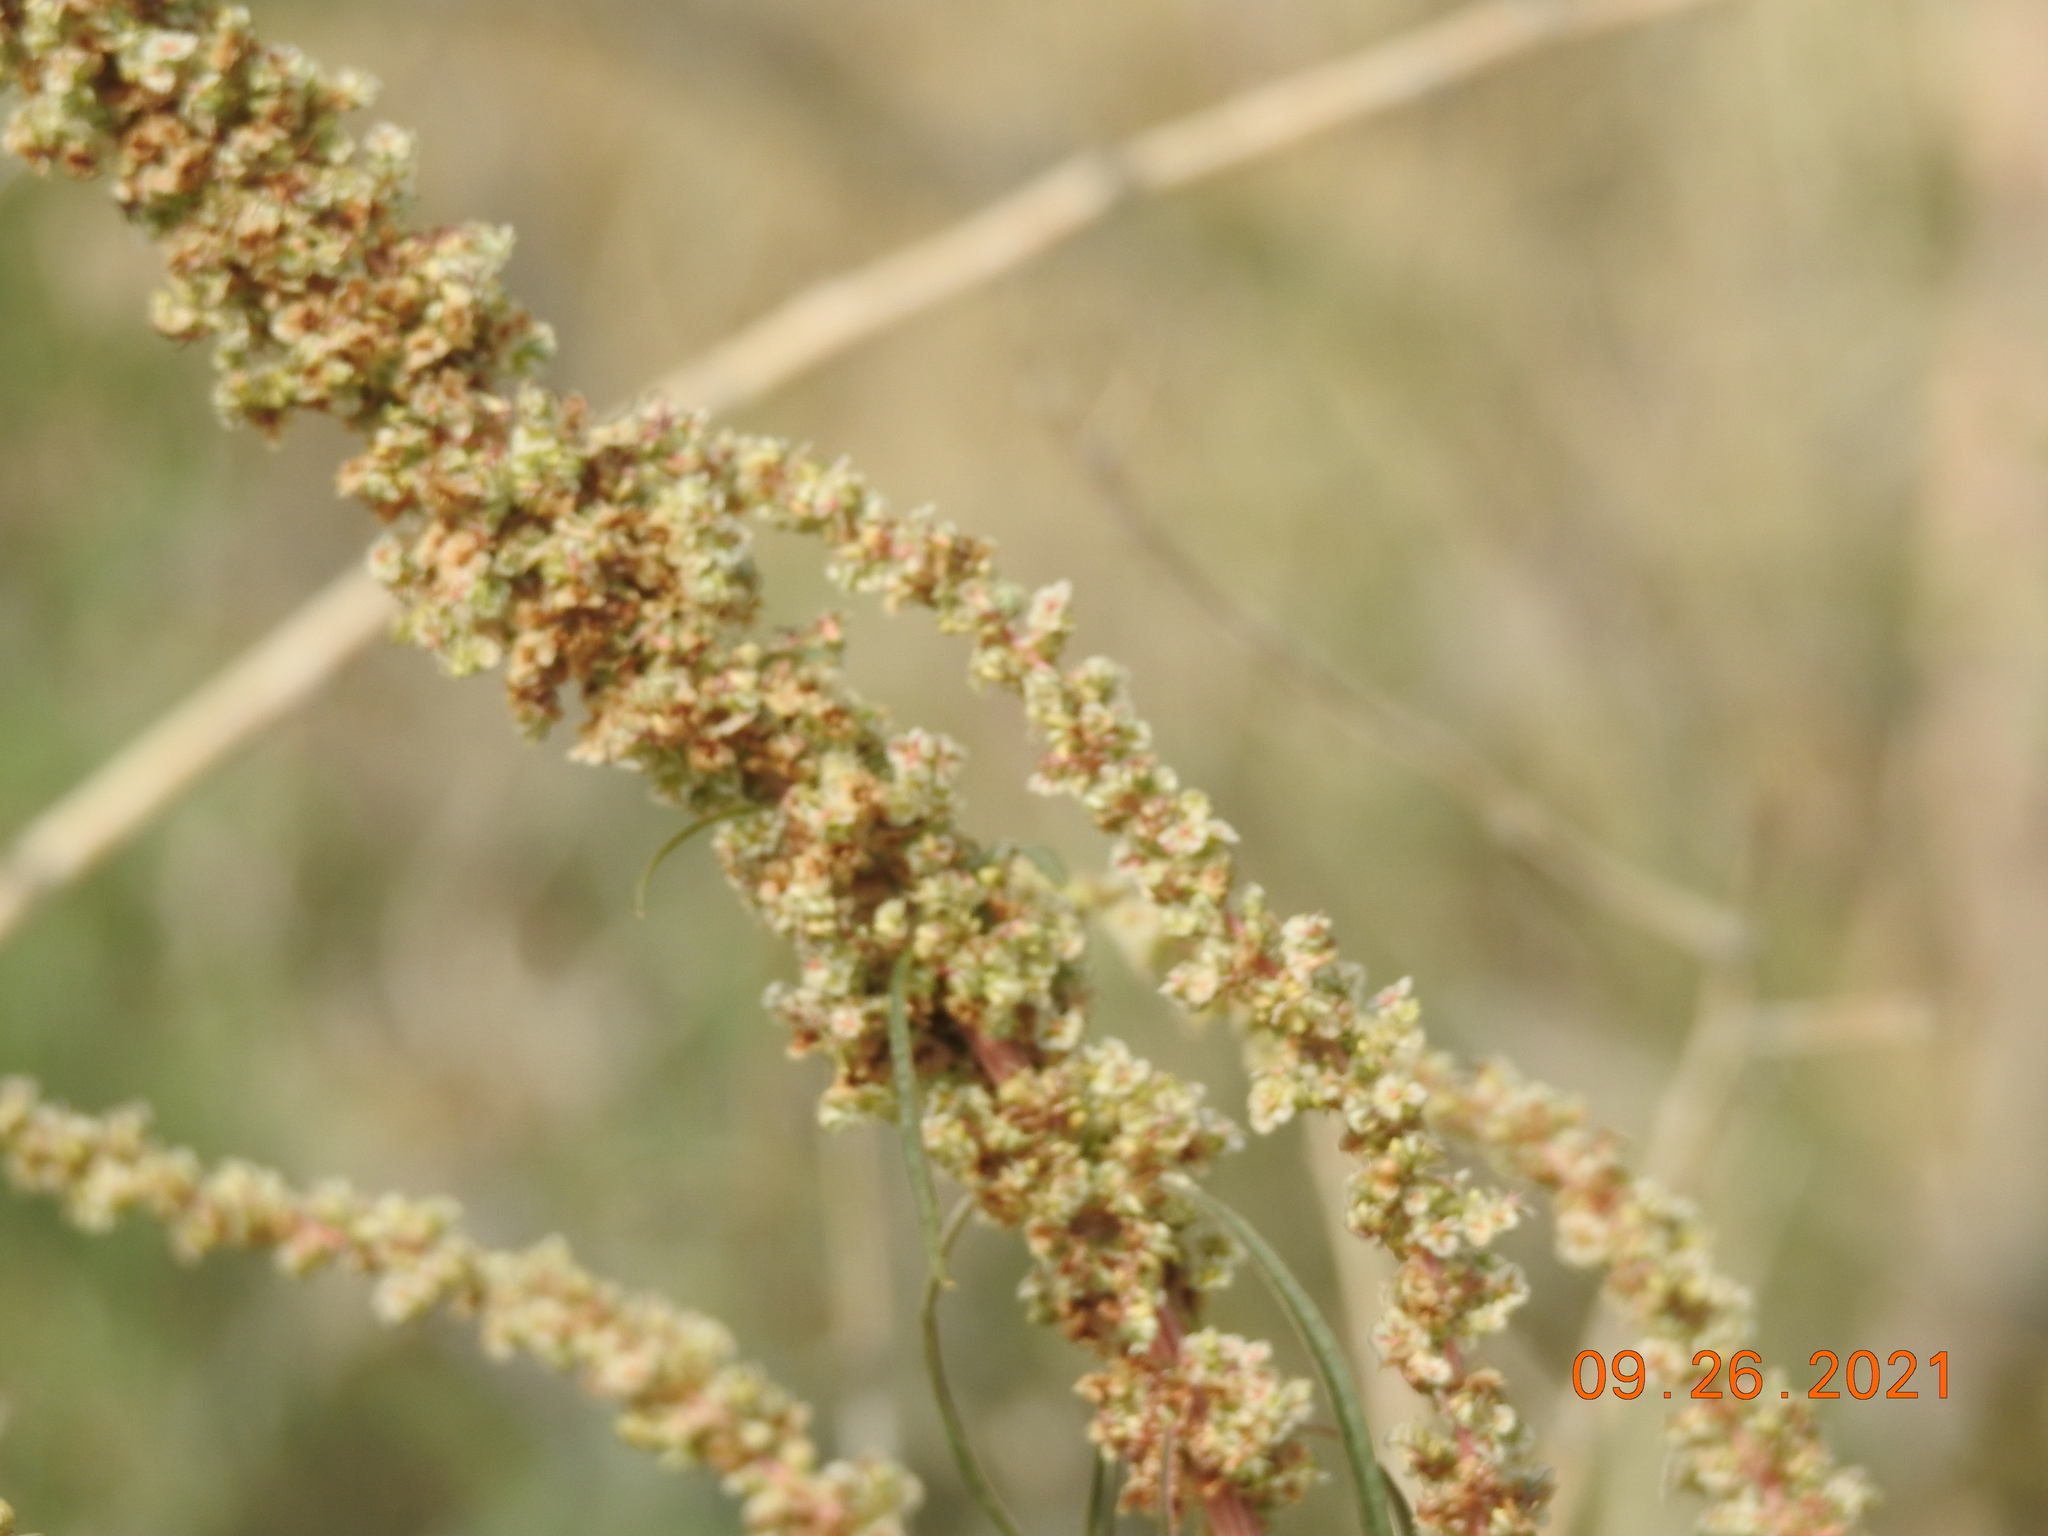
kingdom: Plantae
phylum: Tracheophyta
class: Magnoliopsida
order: Caryophyllales
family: Amaranthaceae
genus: Amaranthus
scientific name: Amaranthus fimbriatus
